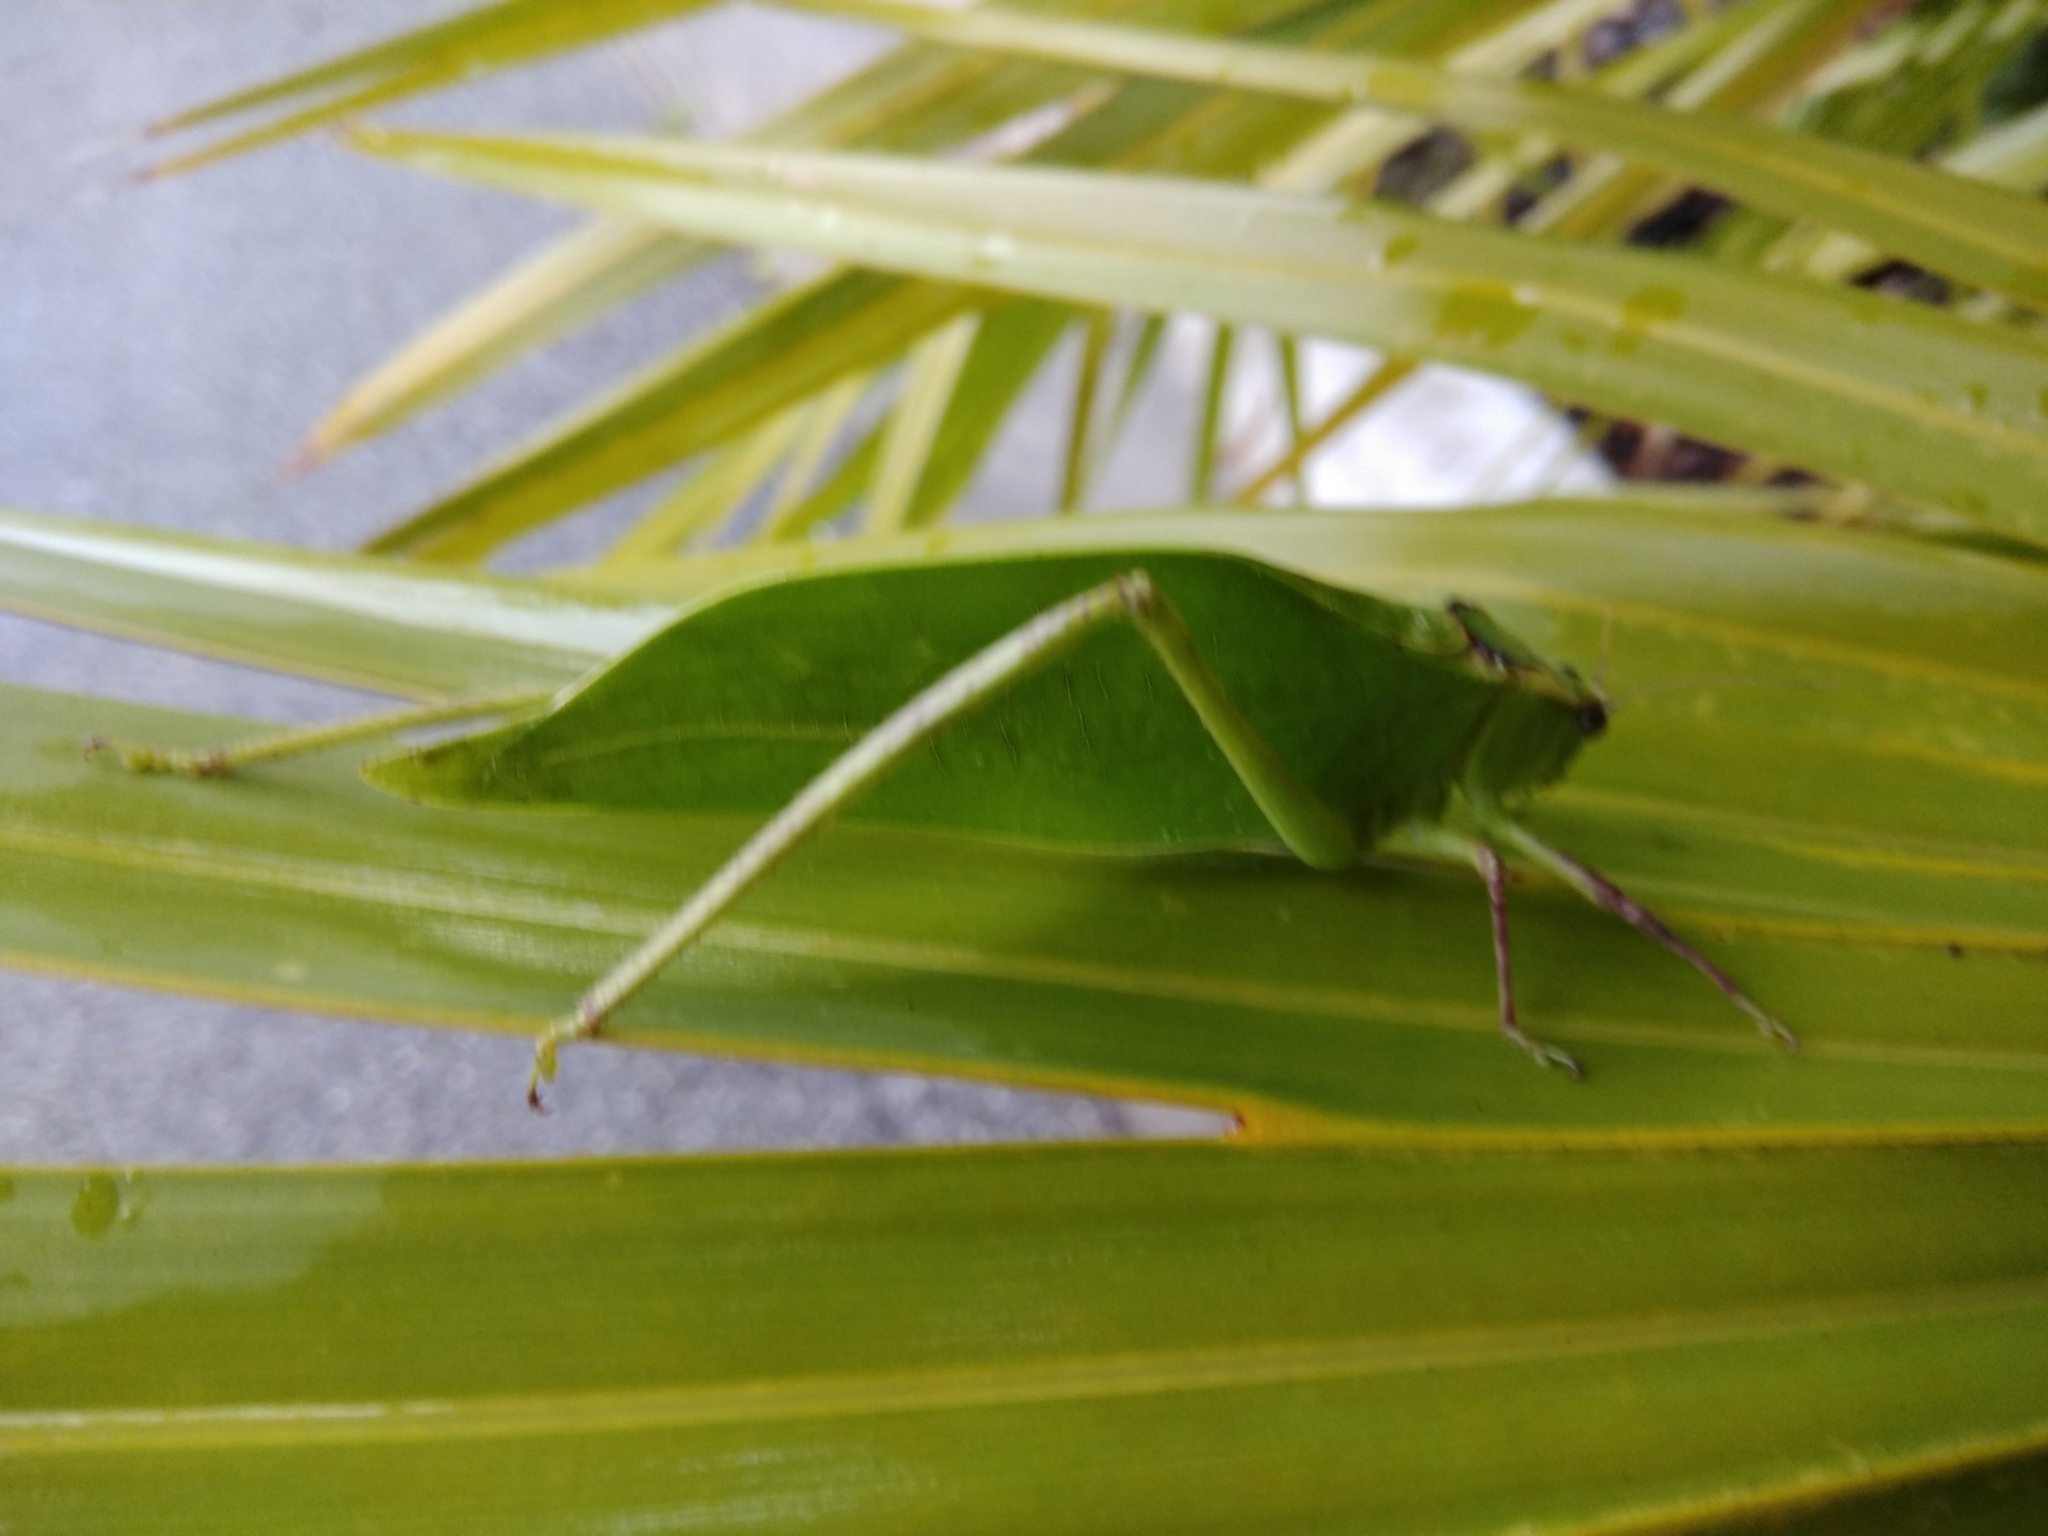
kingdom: Animalia
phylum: Arthropoda
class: Insecta
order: Orthoptera
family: Tettigoniidae
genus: Stilpnochlora
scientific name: Stilpnochlora couloniana
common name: Giant katydid
